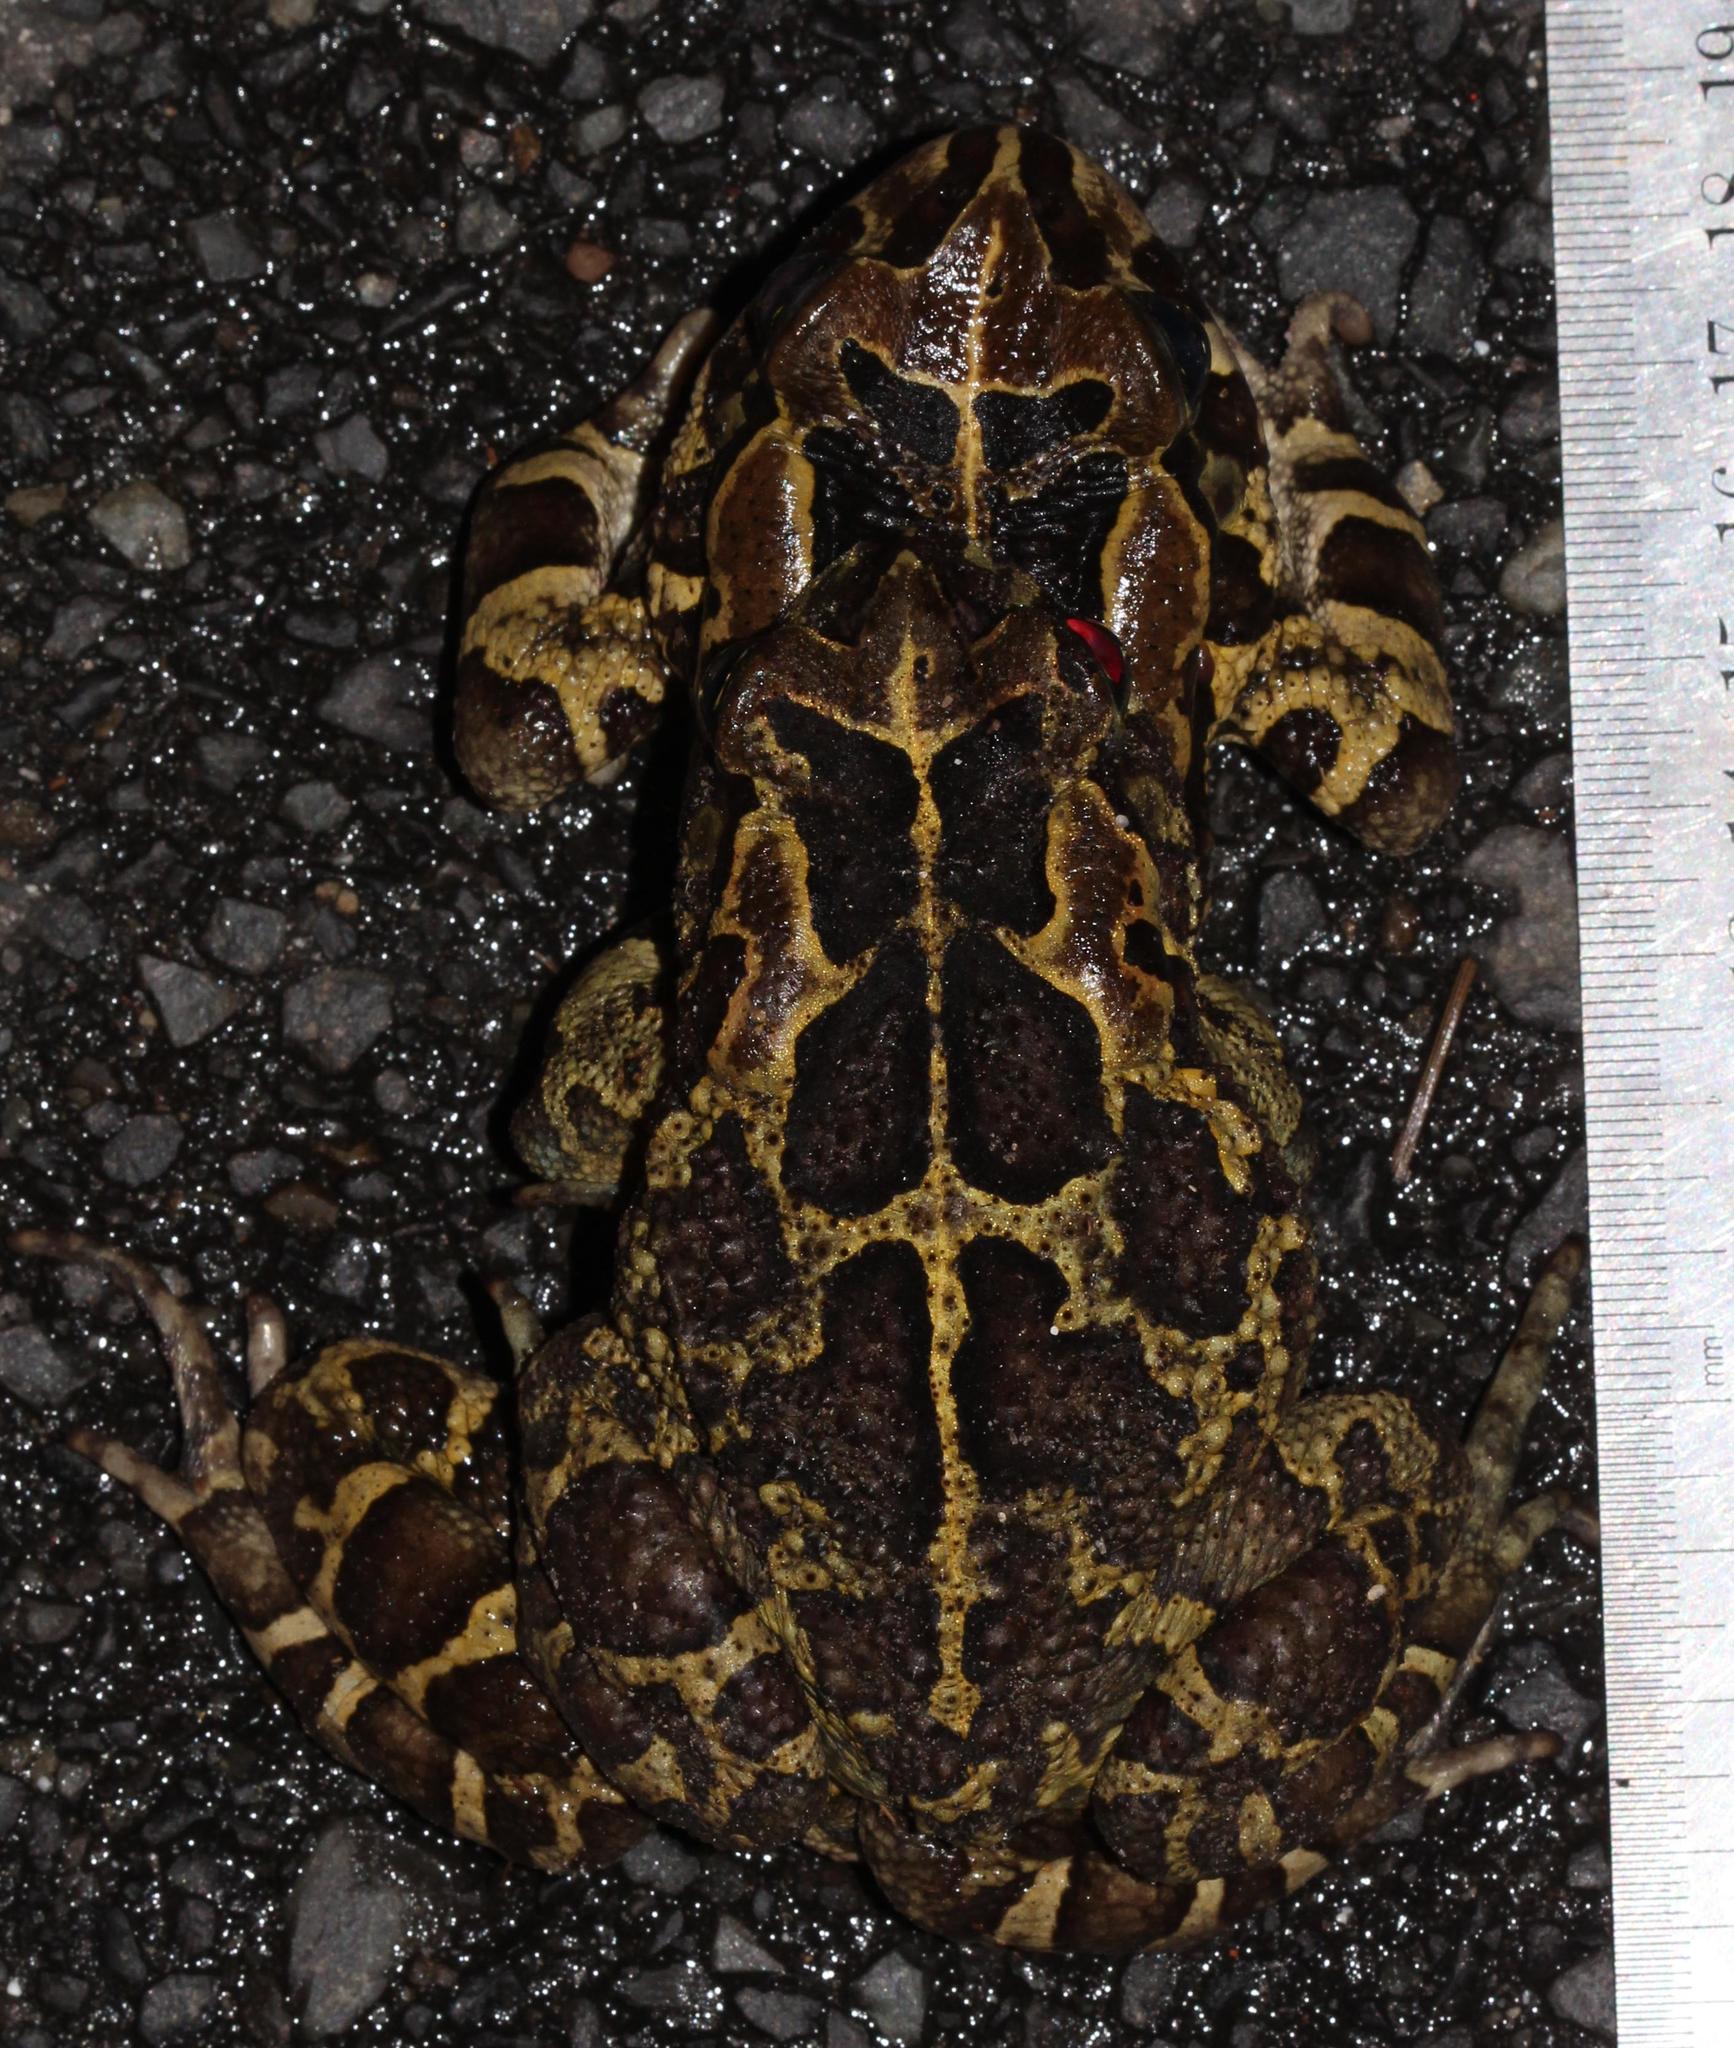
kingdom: Animalia
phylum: Chordata
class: Amphibia
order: Anura
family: Bufonidae
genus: Sclerophrys
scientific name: Sclerophrys pantherina
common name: Panther toad
